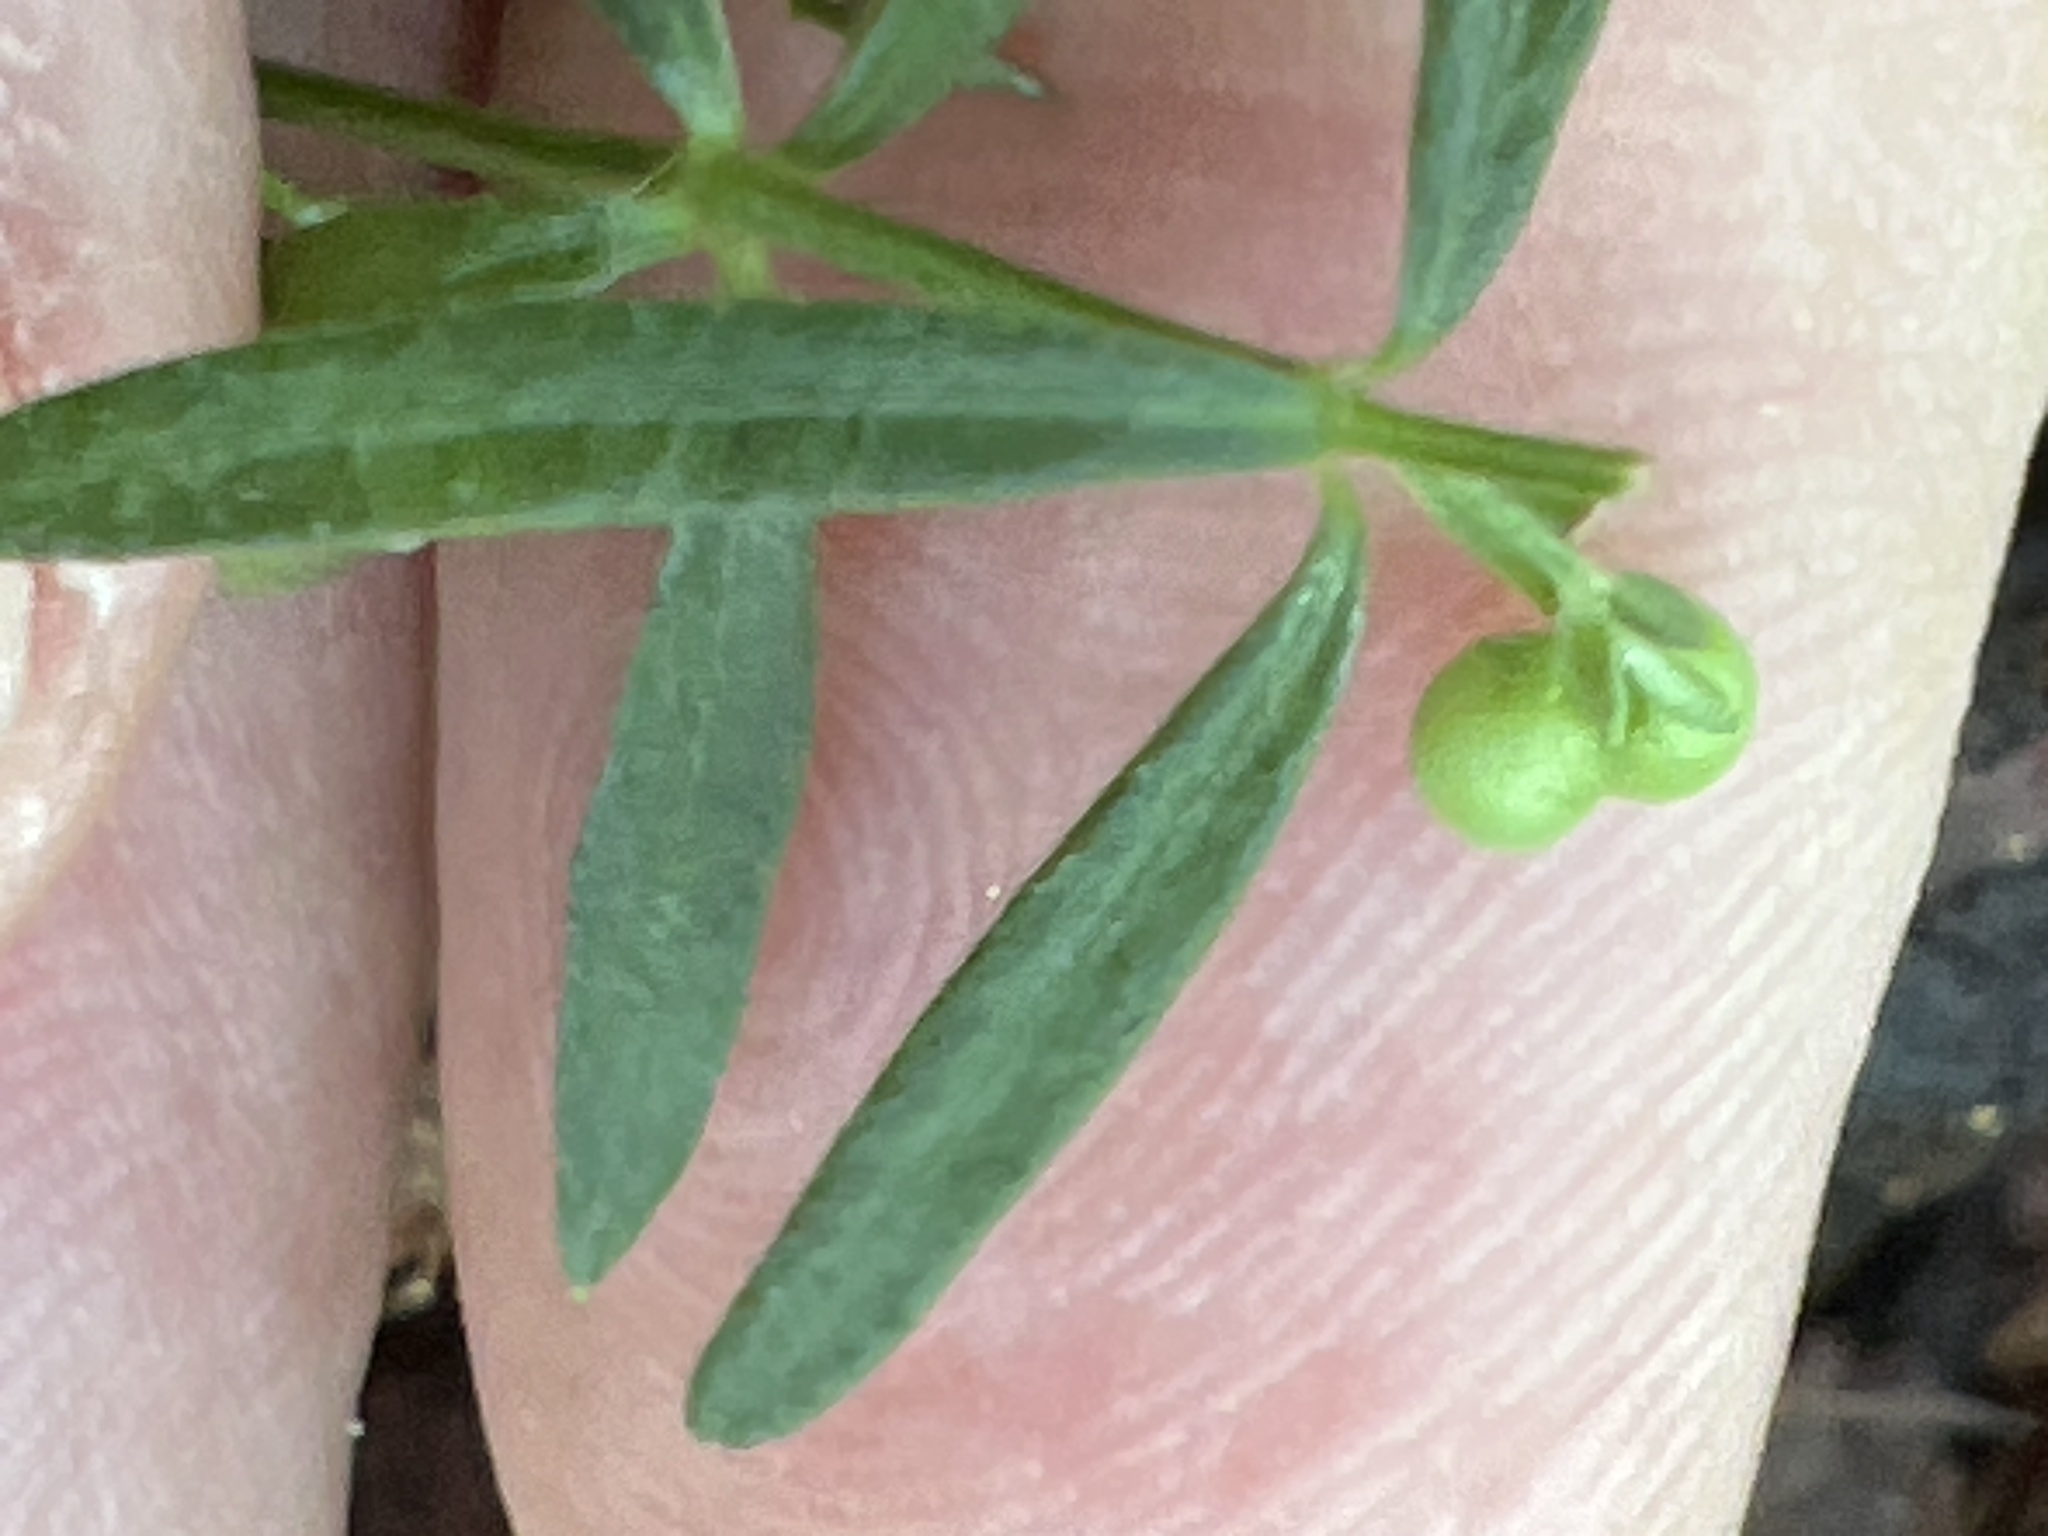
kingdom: Plantae
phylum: Tracheophyta
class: Magnoliopsida
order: Gentianales
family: Rubiaceae
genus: Galium
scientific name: Galium uniflorum
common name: One-flower bedstraw
